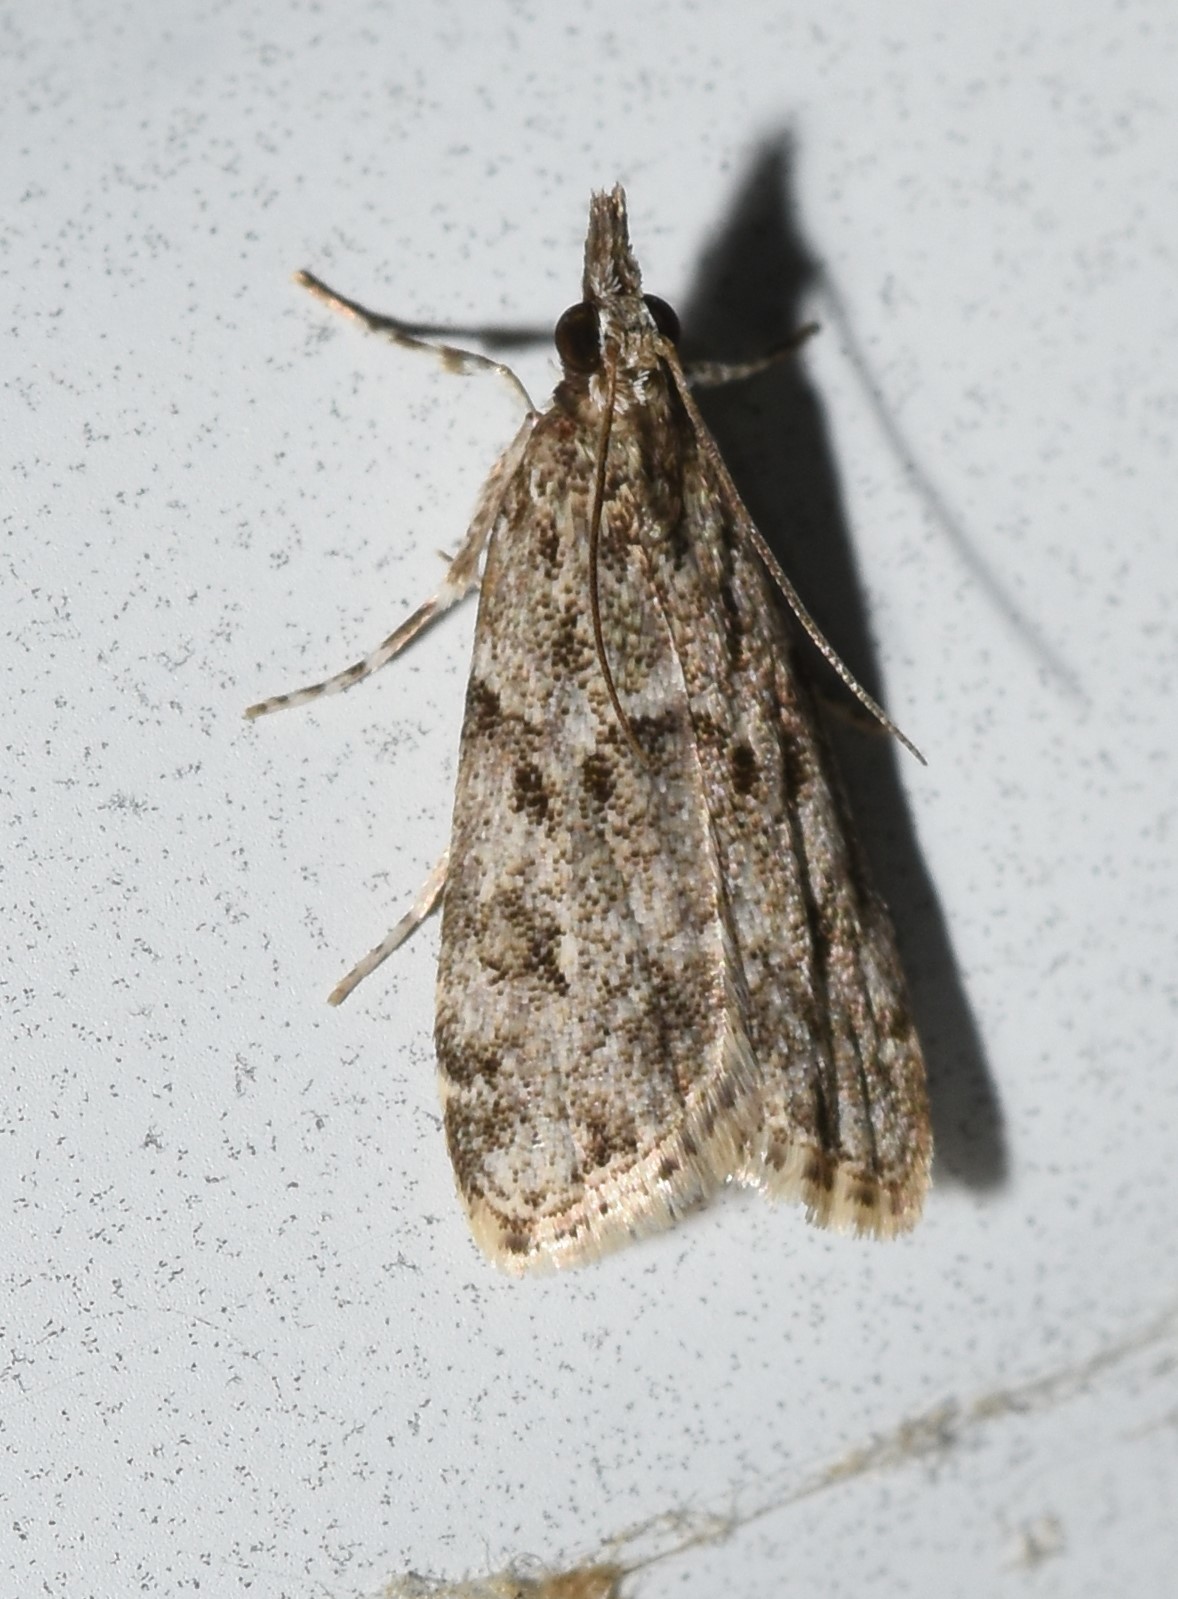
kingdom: Animalia
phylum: Arthropoda
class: Insecta
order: Lepidoptera
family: Crambidae
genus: Eudonia
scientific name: Eudonia heterosalis
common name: Mcdunnough's eudonia
